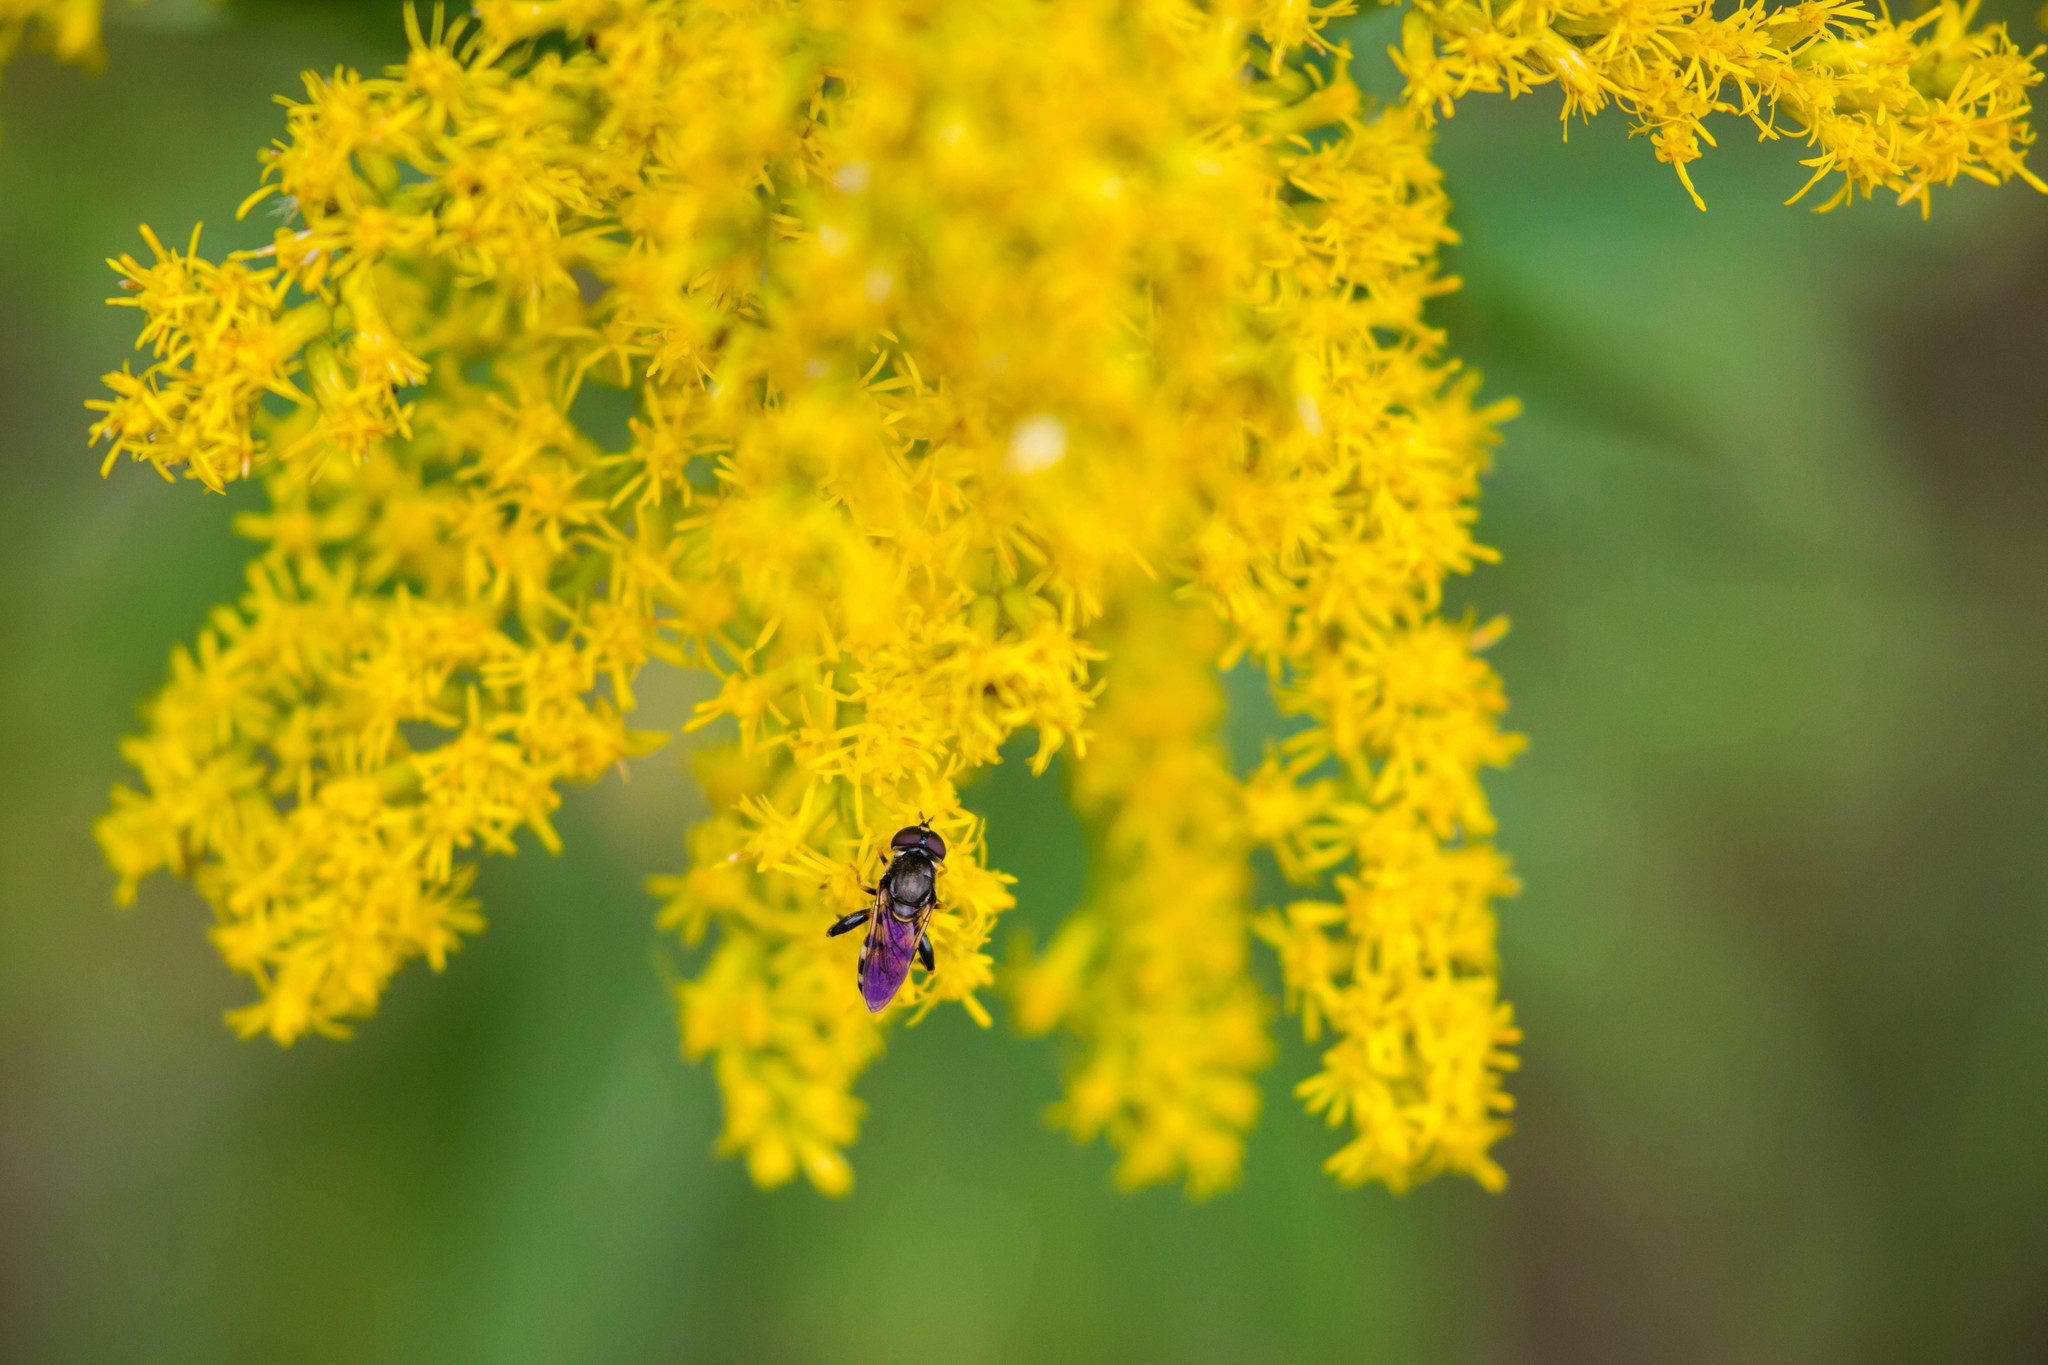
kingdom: Animalia
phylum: Arthropoda
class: Insecta
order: Diptera
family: Syrphidae
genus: Tropidia
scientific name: Tropidia albistylum
